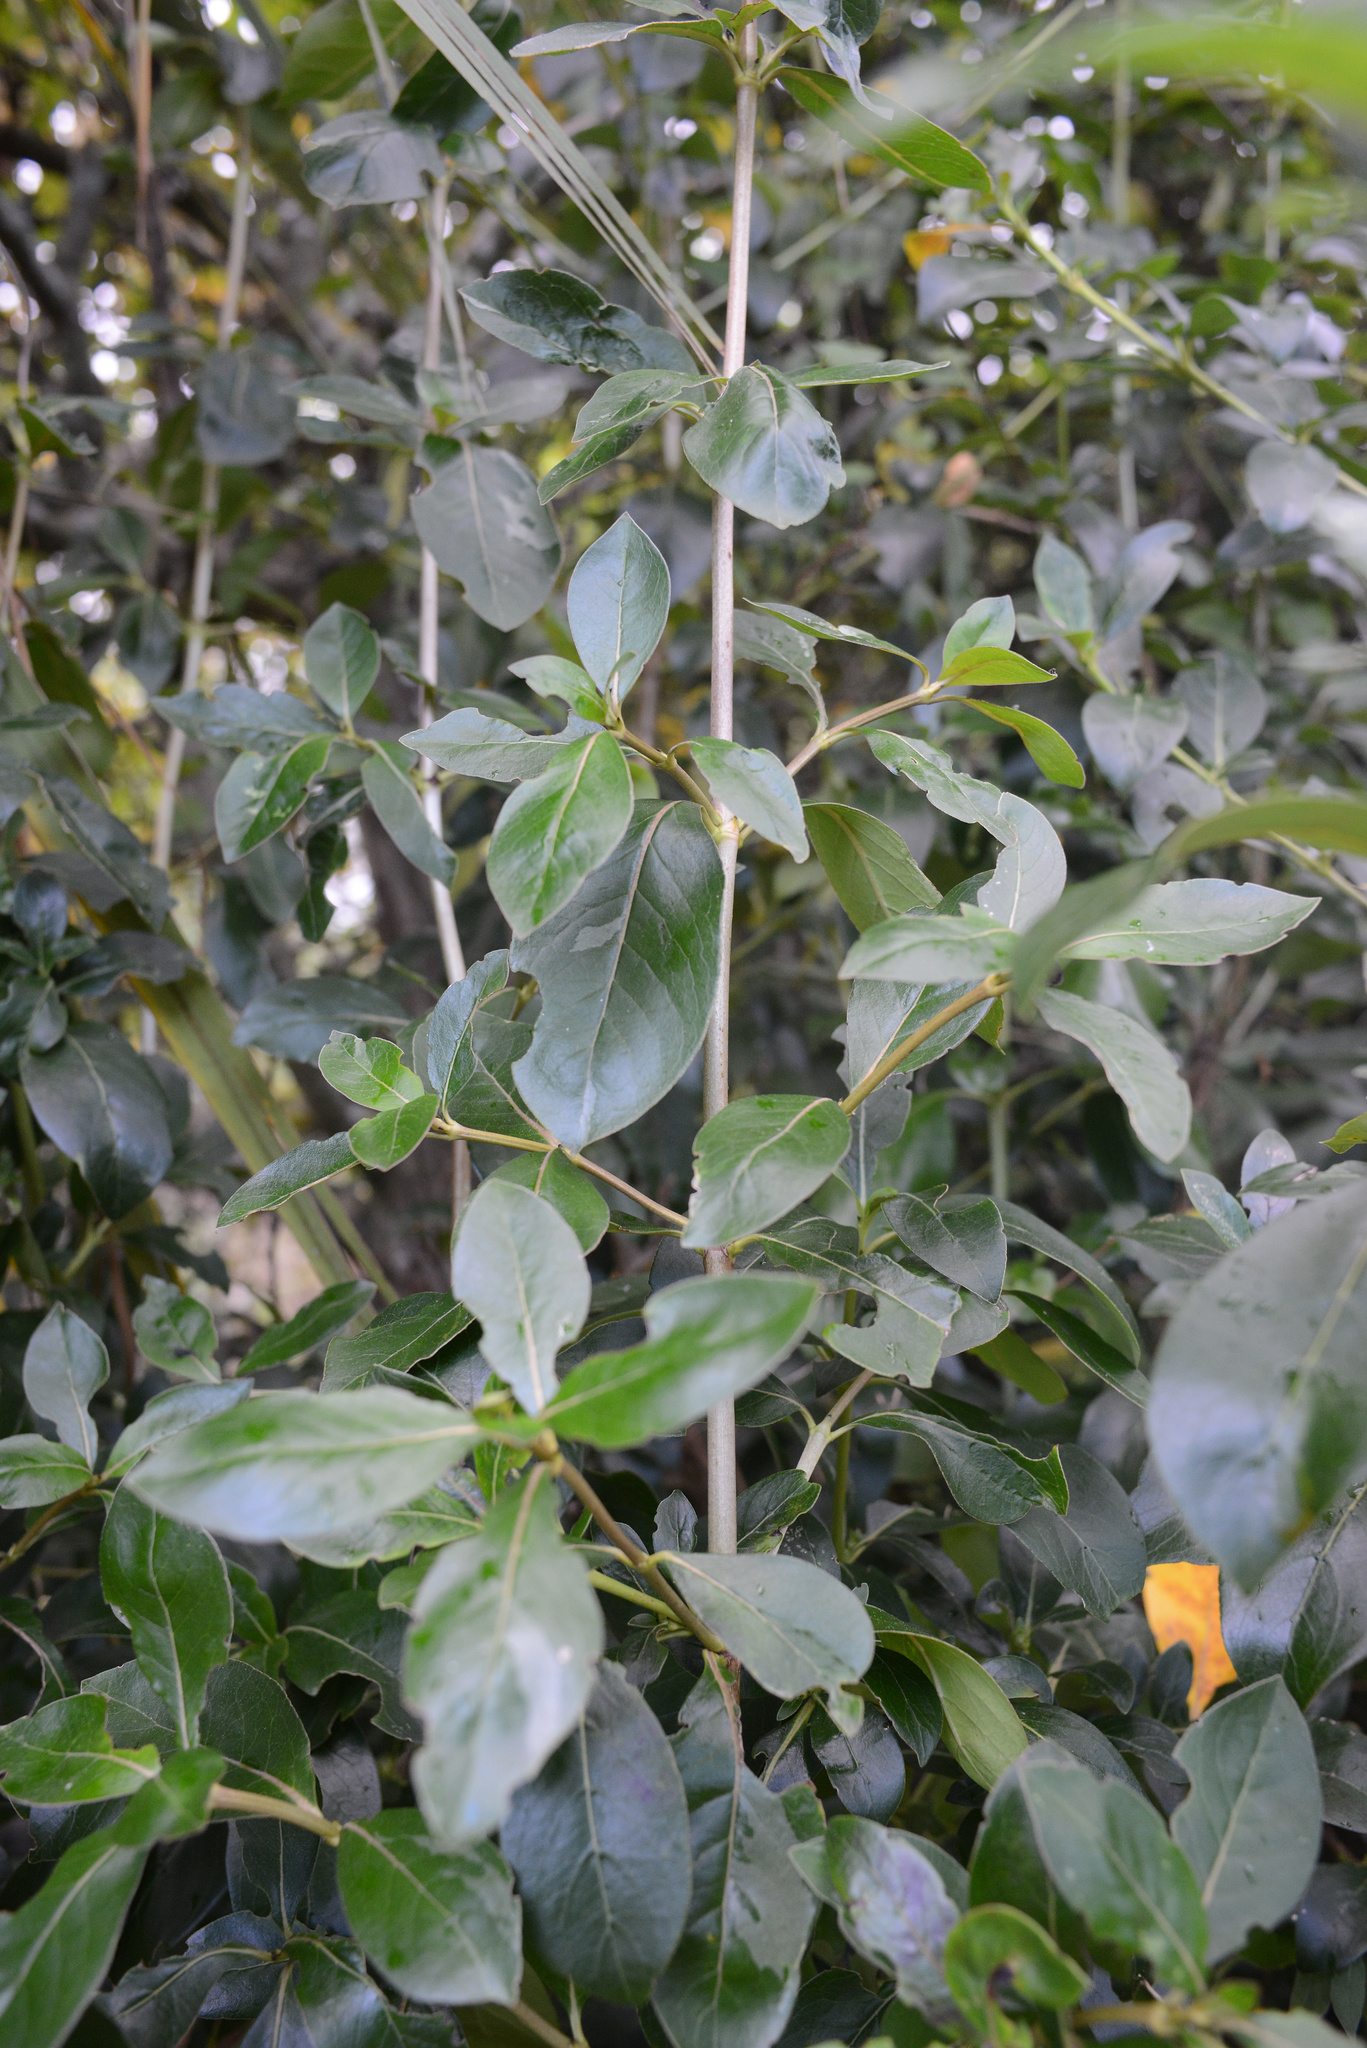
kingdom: Plantae
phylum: Tracheophyta
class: Magnoliopsida
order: Gentianales
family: Rubiaceae
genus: Coprosma
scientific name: Coprosma robusta
